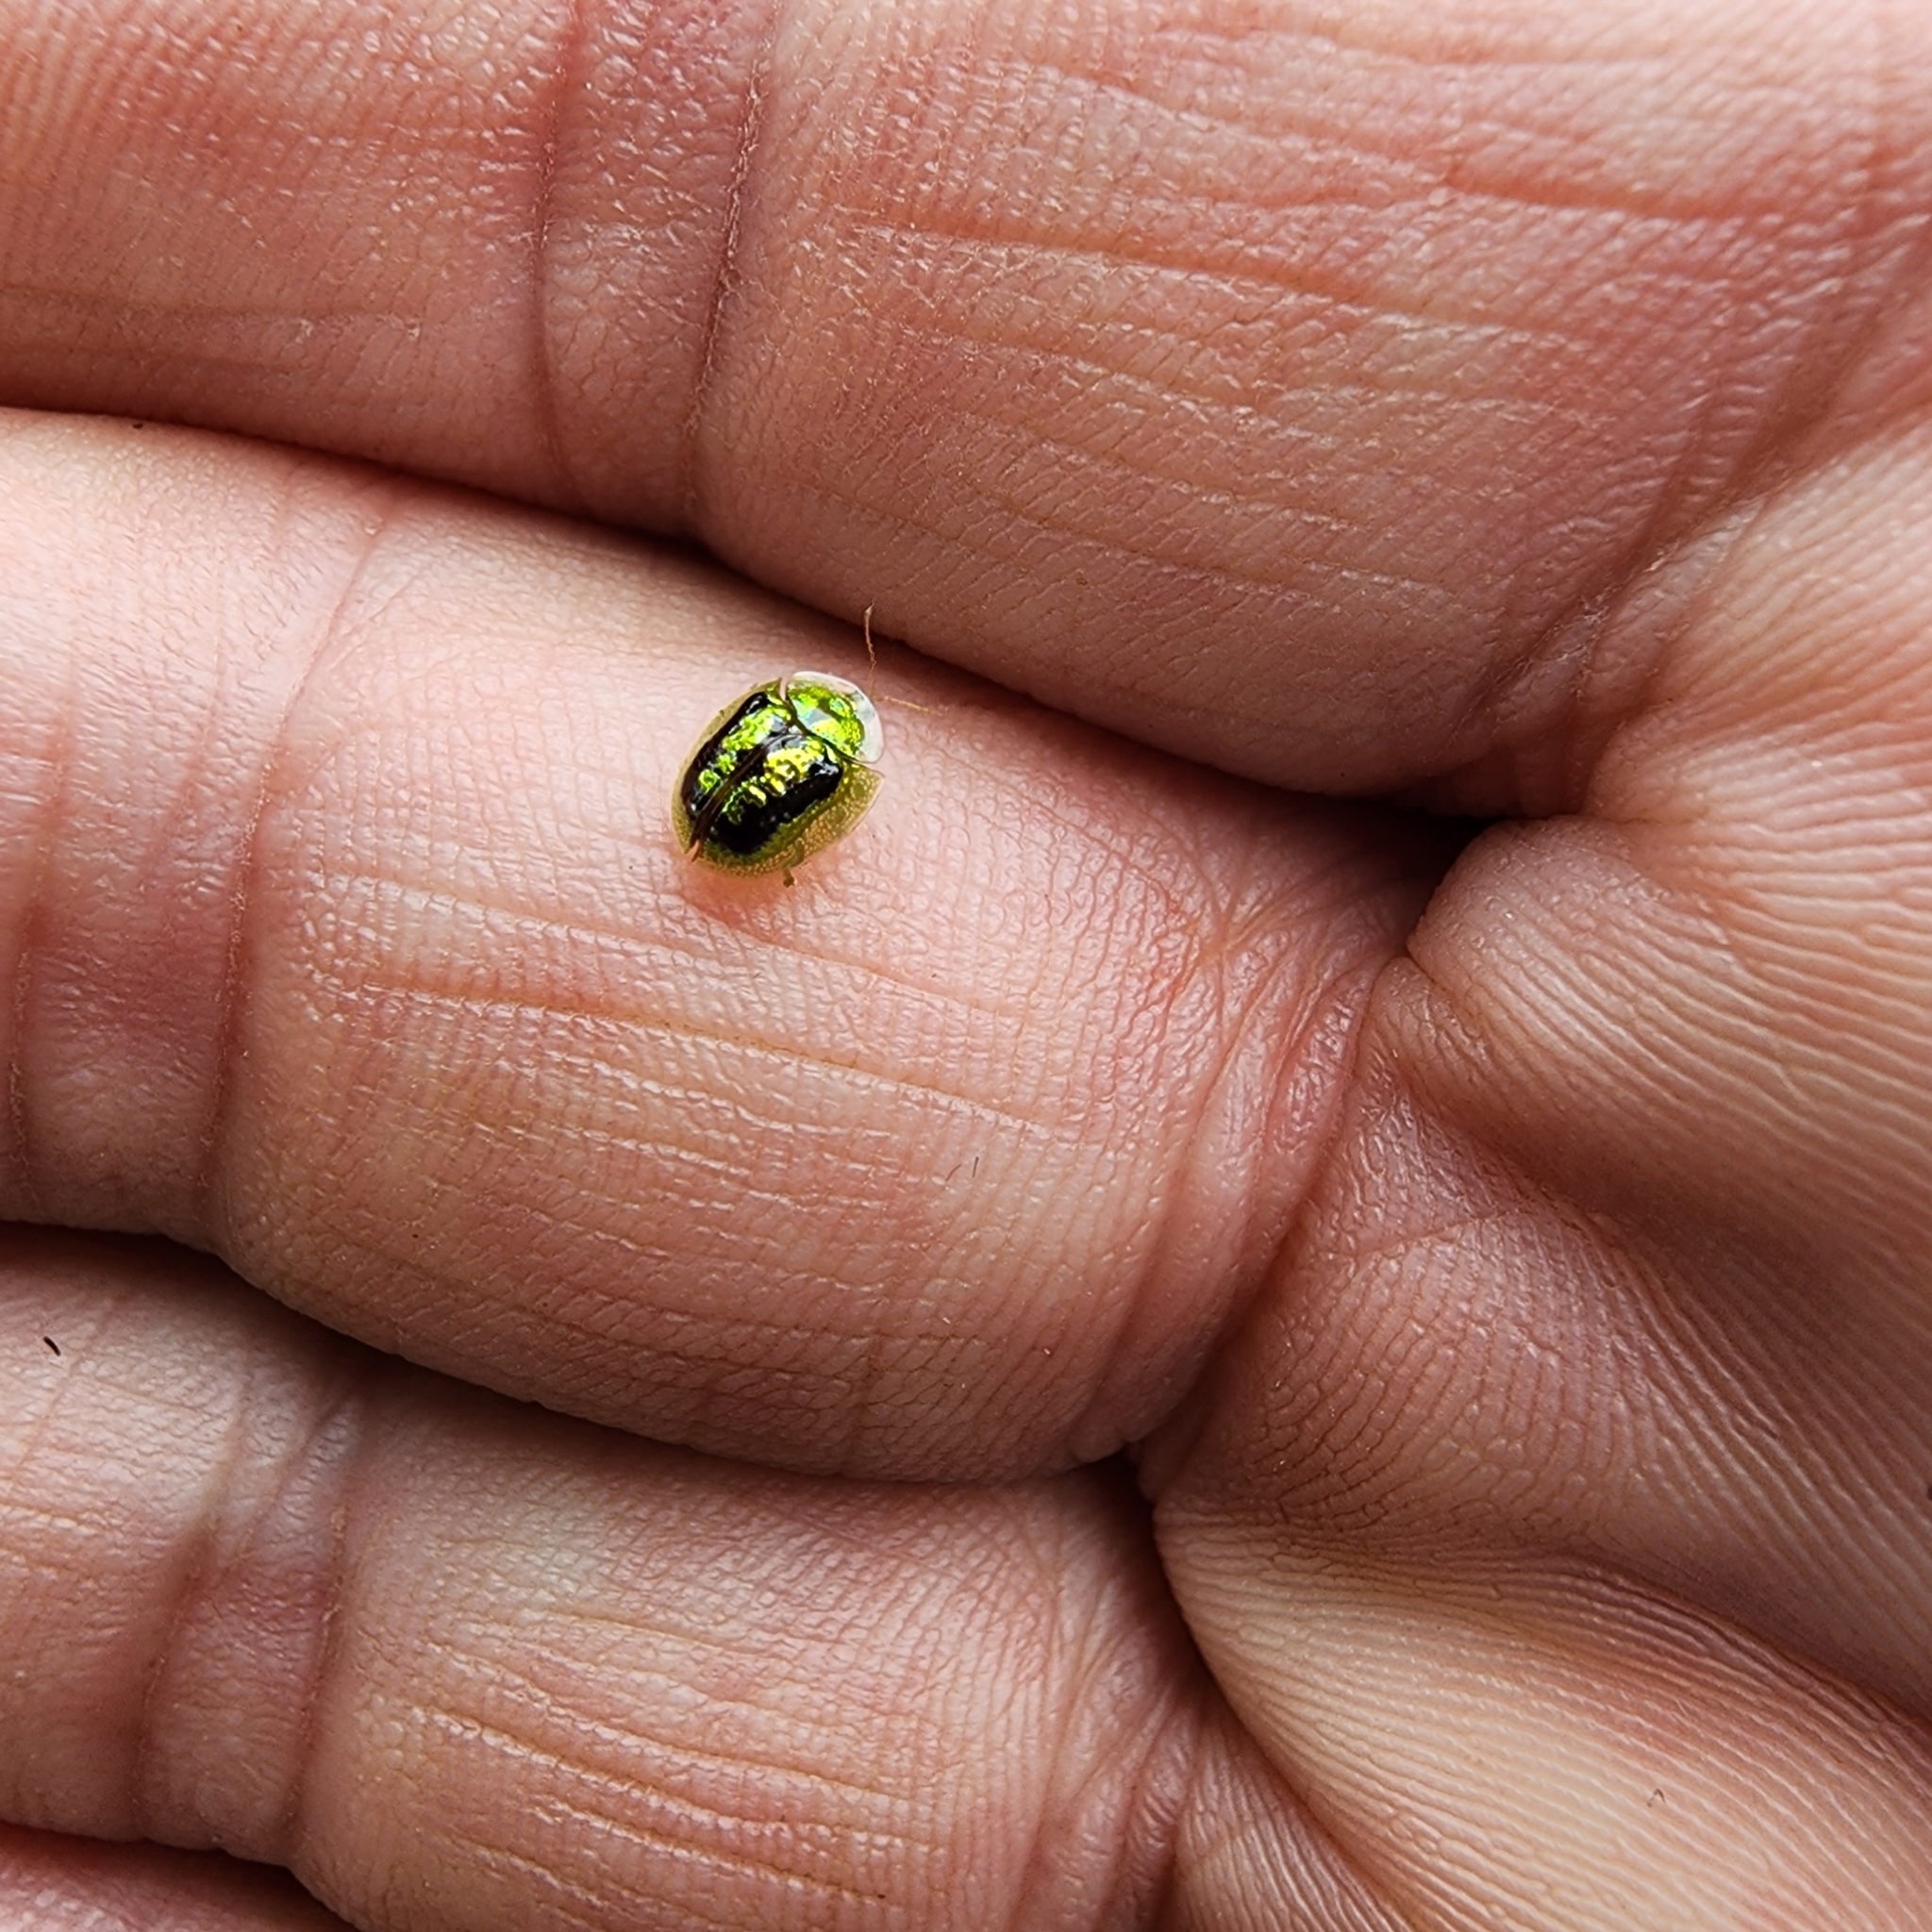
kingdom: Animalia
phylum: Arthropoda
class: Insecta
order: Coleoptera
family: Chrysomelidae
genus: Cassida
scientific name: Cassida circumdata
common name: Tortoise beetle
